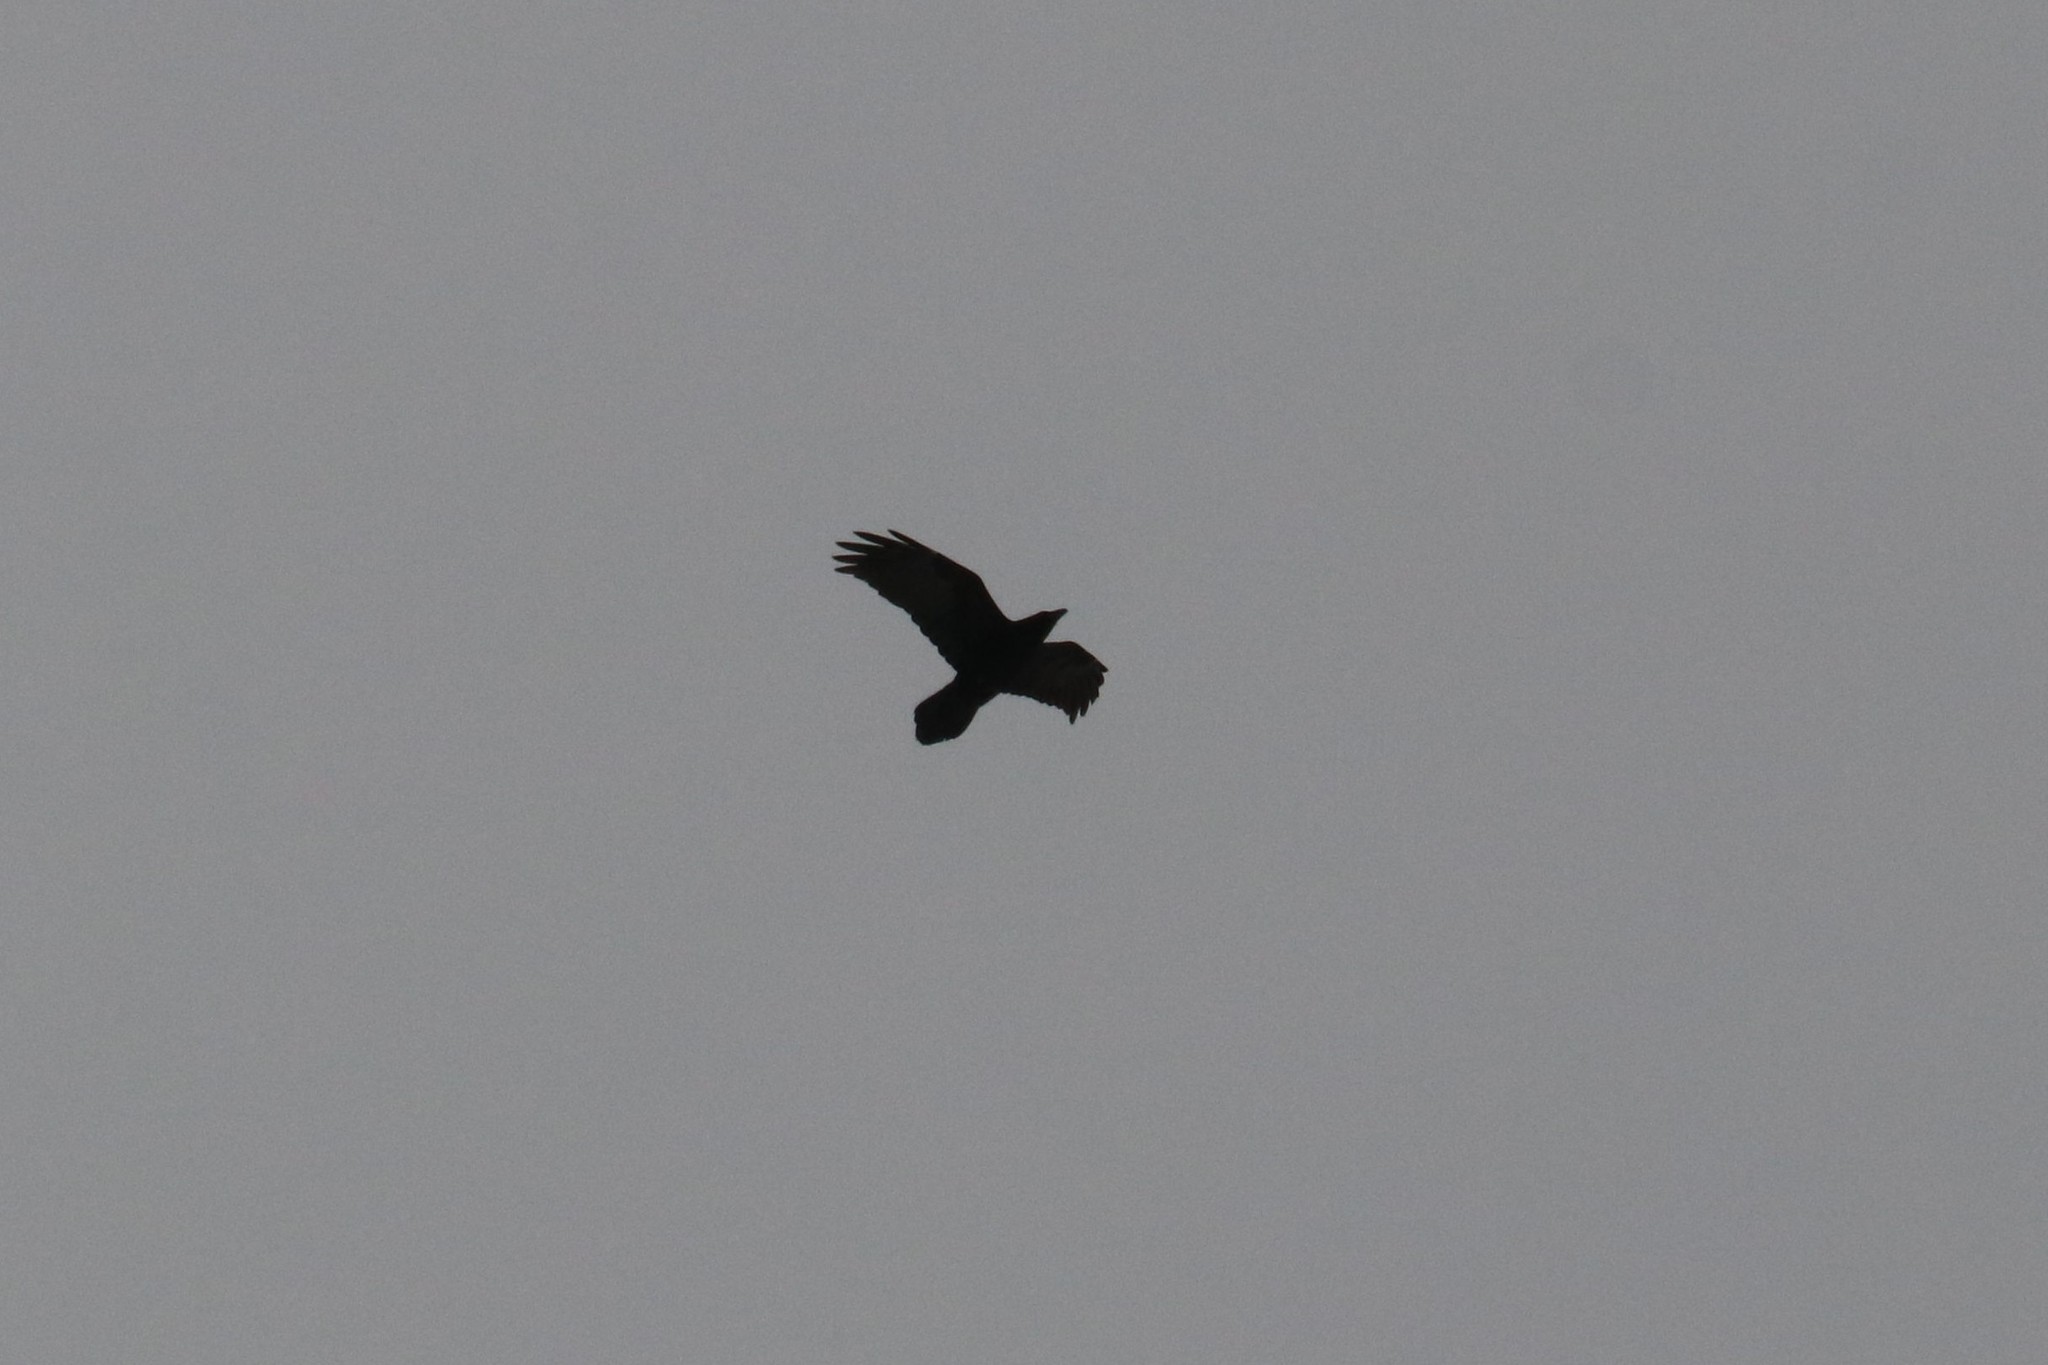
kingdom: Animalia
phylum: Chordata
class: Aves
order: Passeriformes
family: Corvidae
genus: Corvus
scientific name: Corvus corax
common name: Common raven
